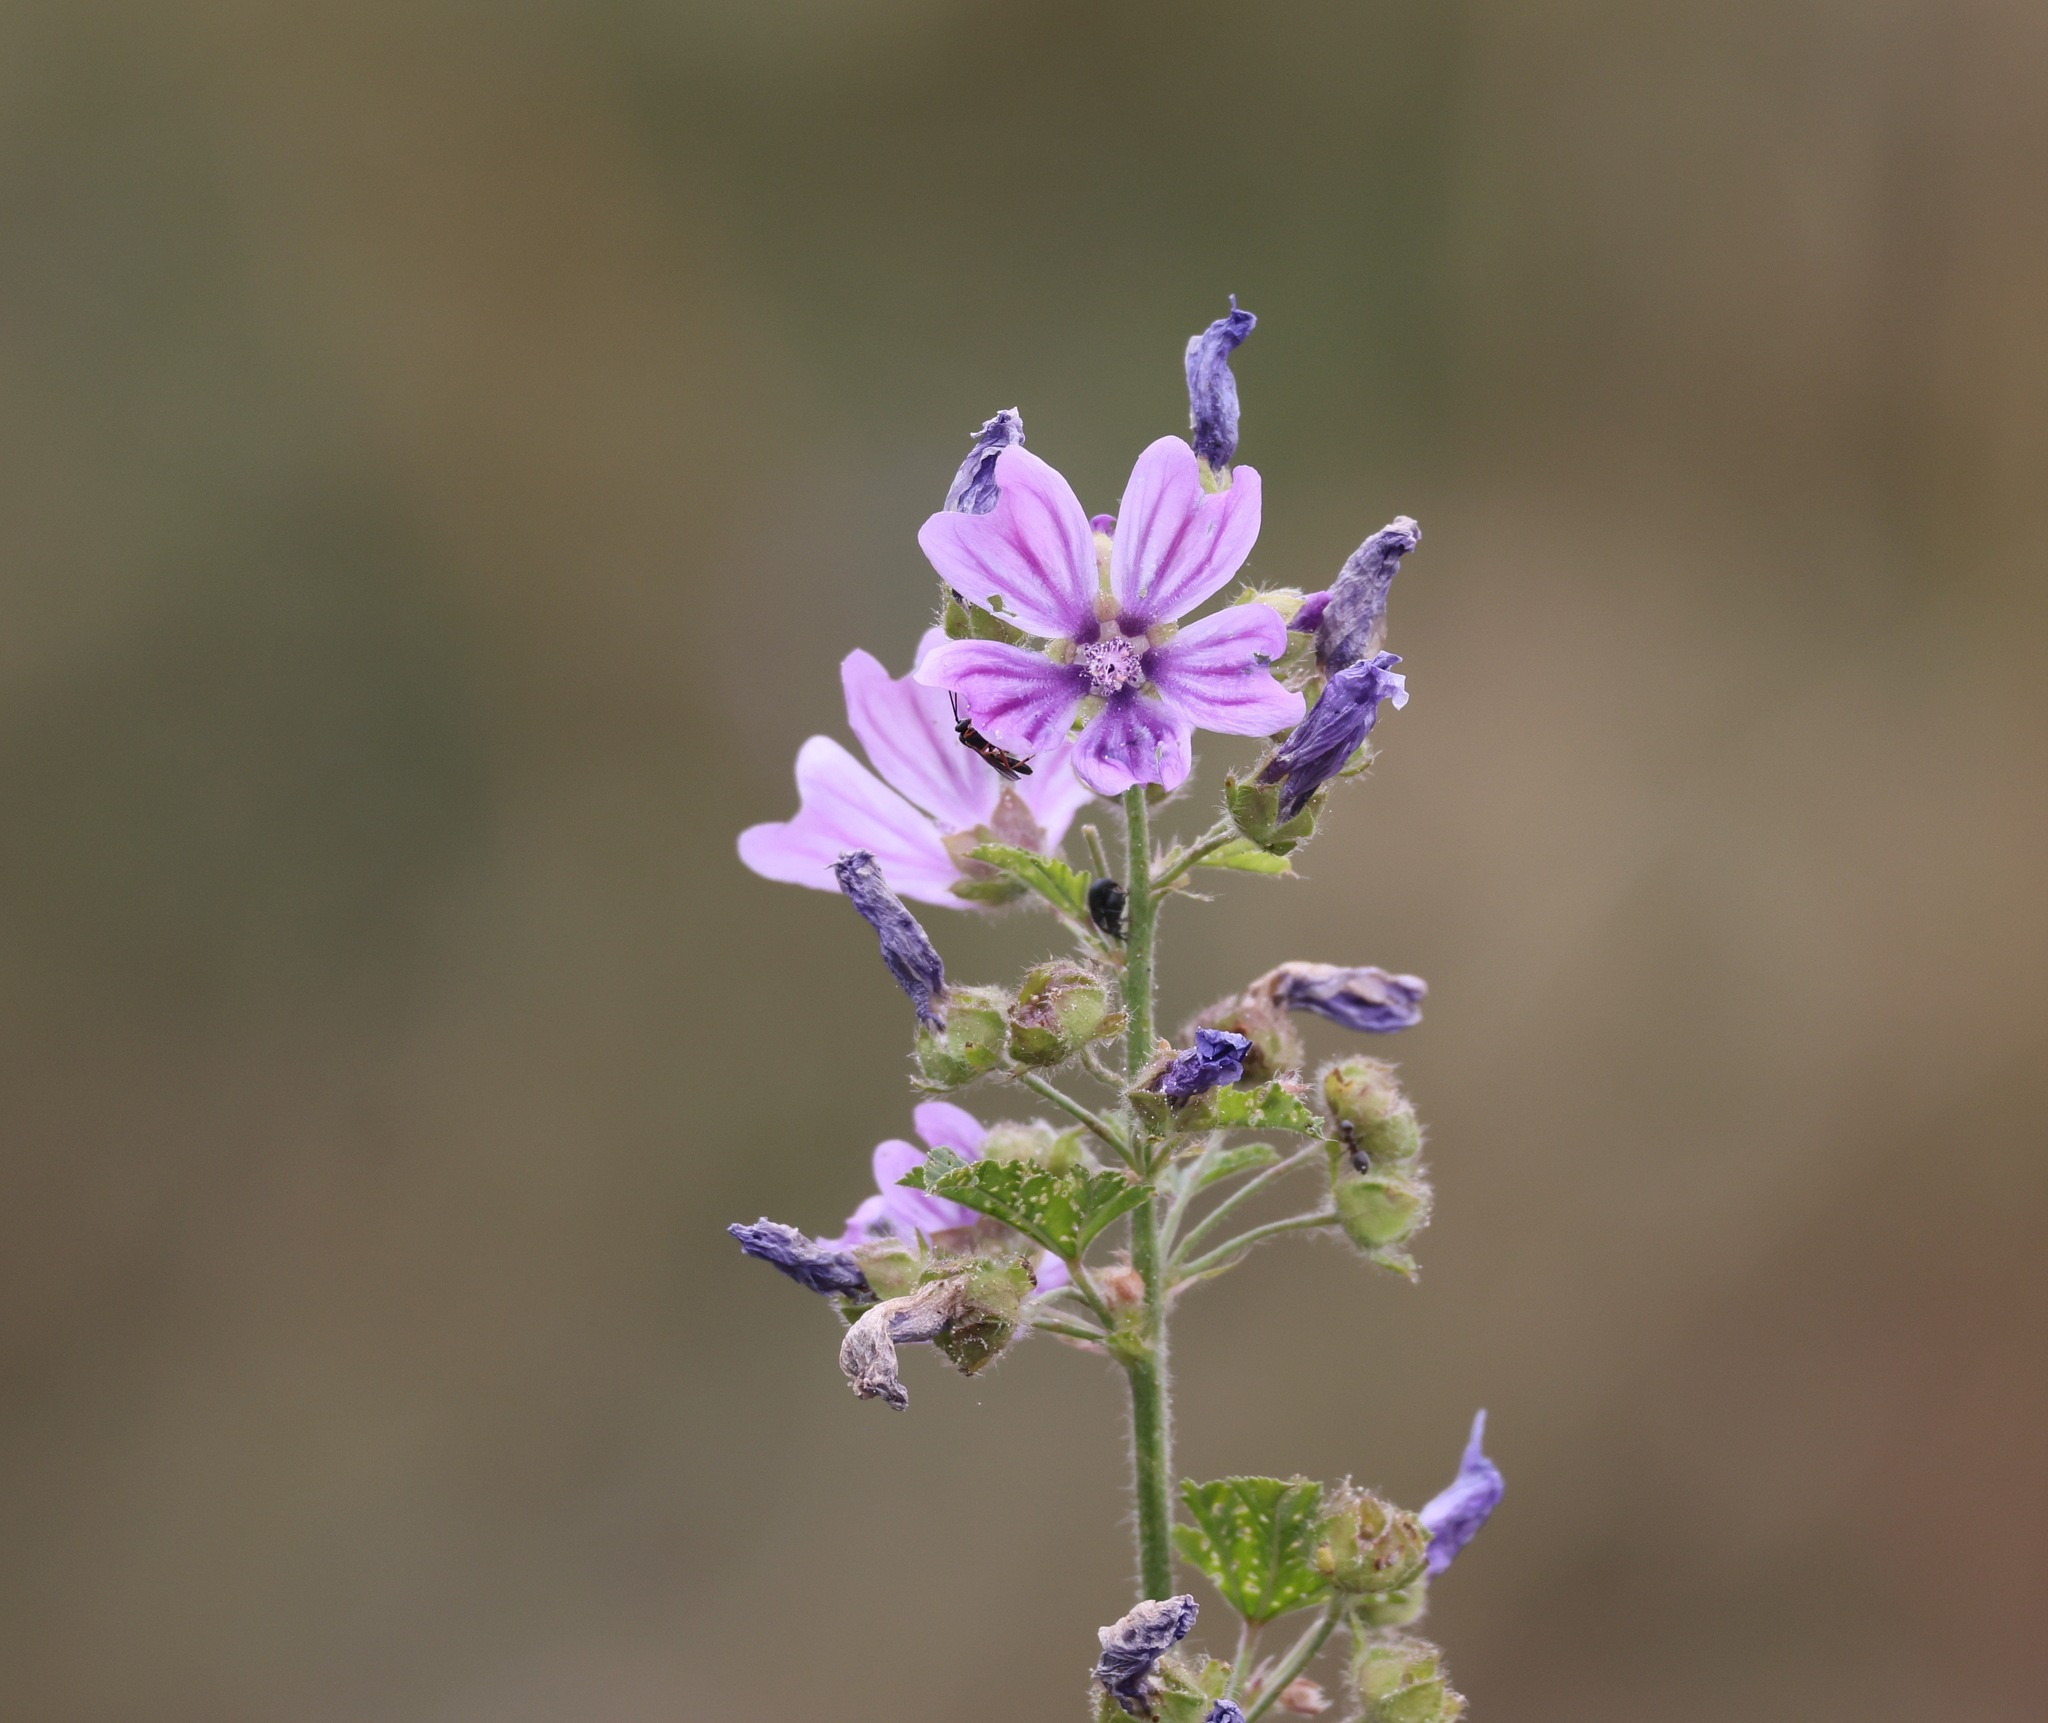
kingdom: Plantae
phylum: Tracheophyta
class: Magnoliopsida
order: Malvales
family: Malvaceae
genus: Malva
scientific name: Malva sylvestris
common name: Common mallow
